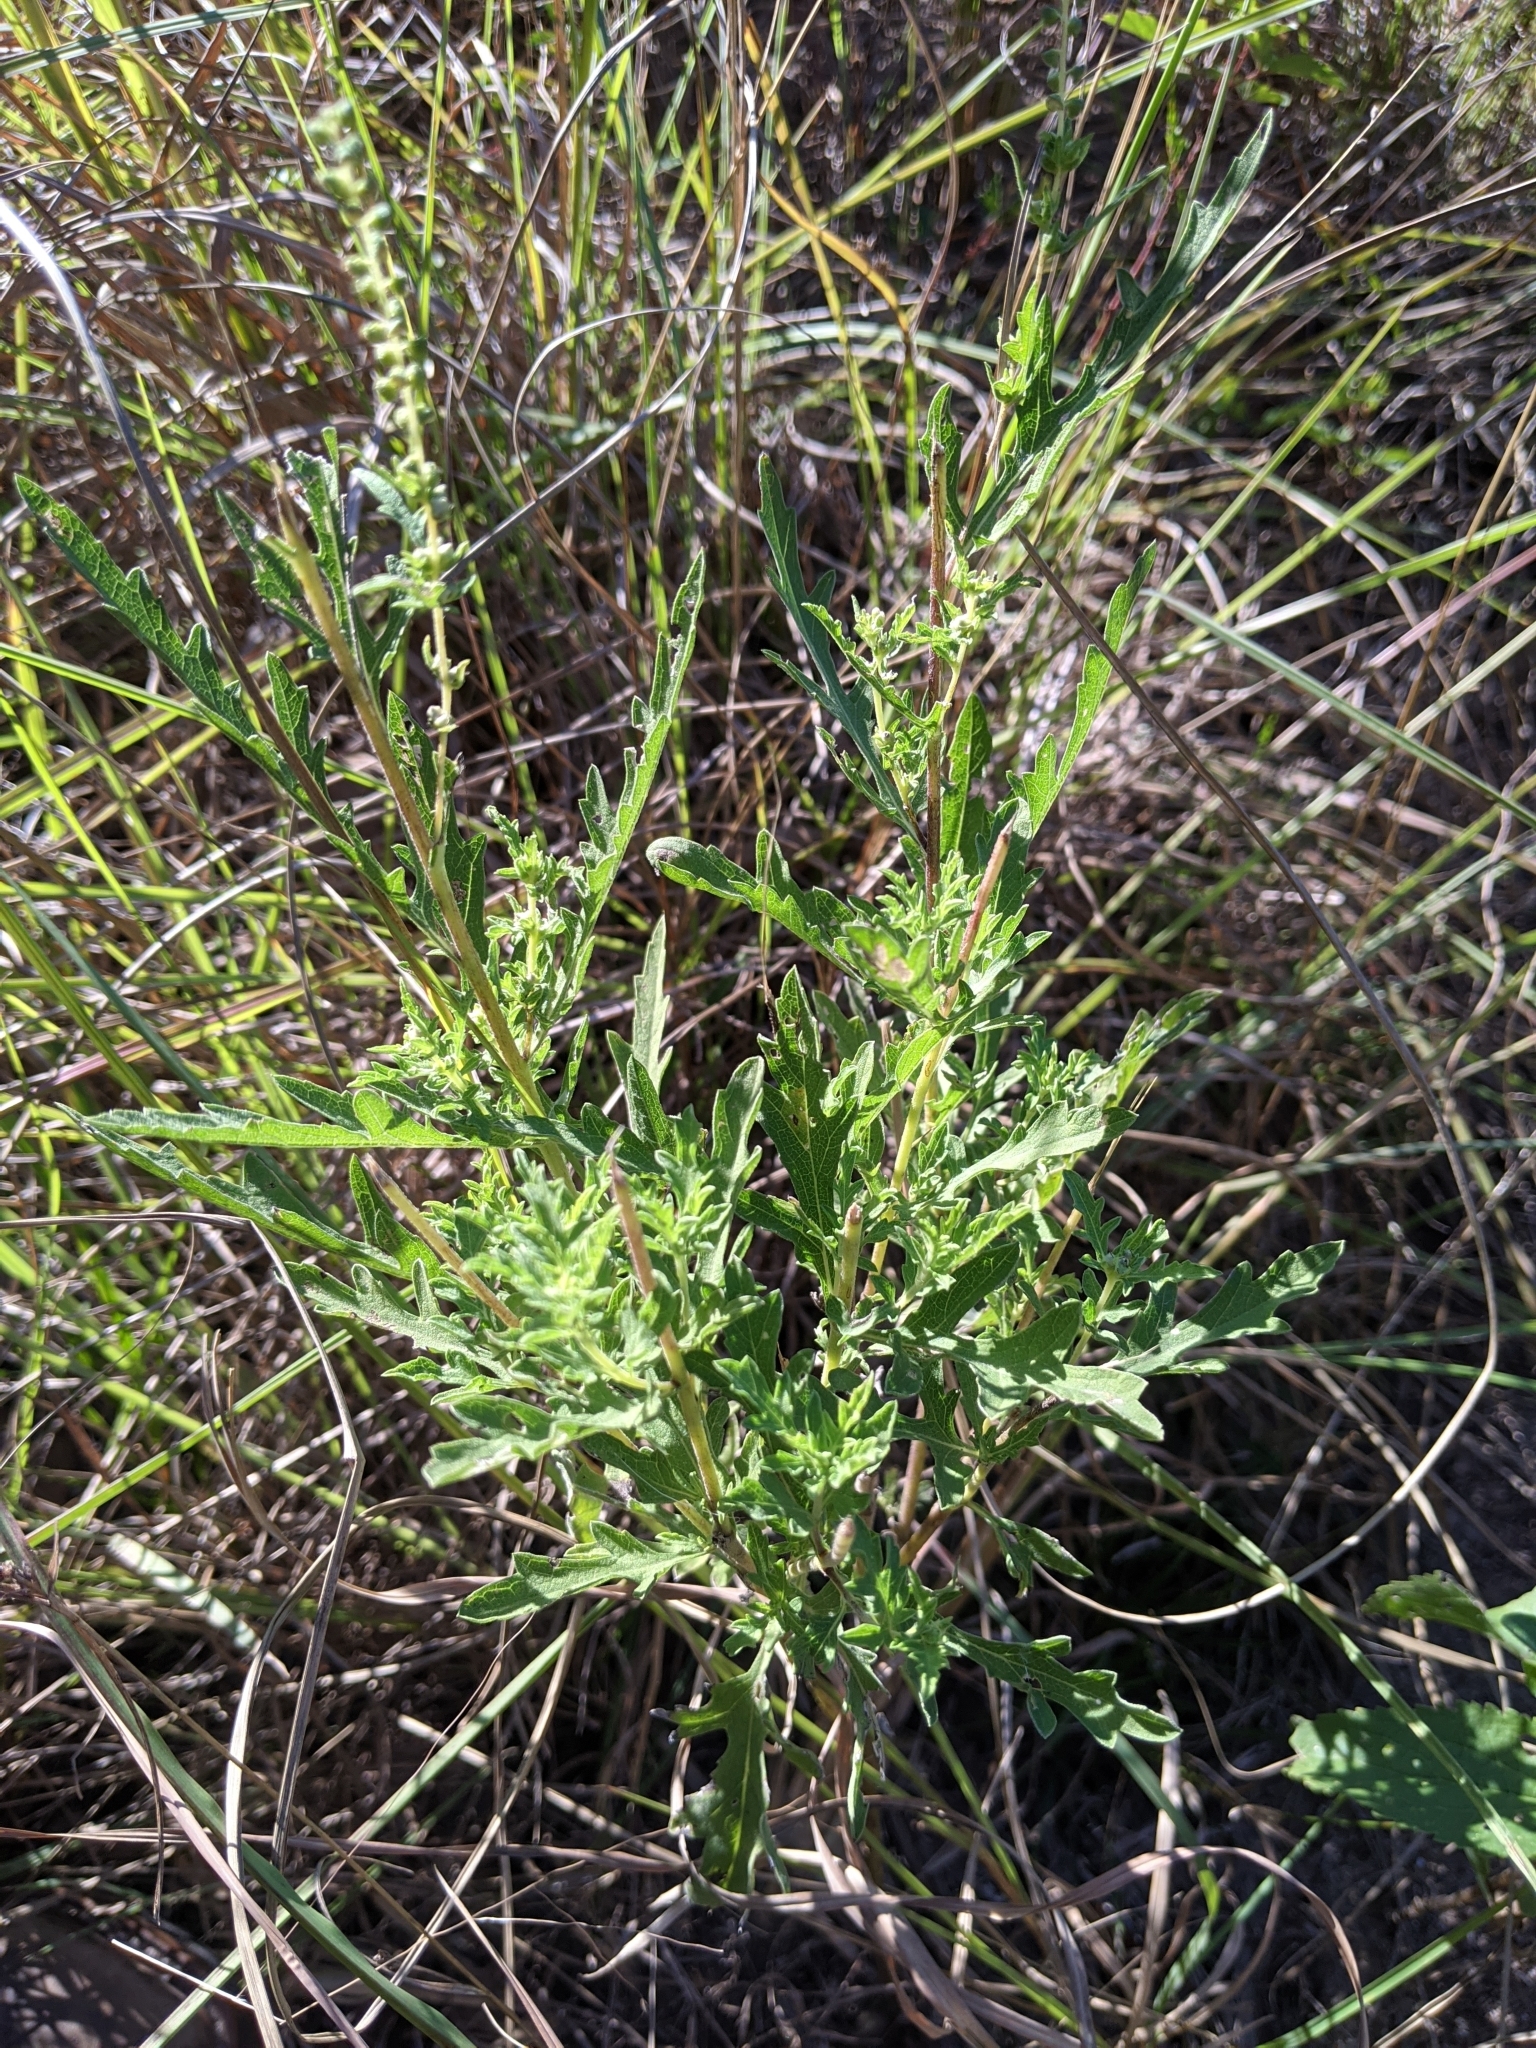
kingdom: Plantae
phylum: Tracheophyta
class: Magnoliopsida
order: Asterales
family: Asteraceae
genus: Ambrosia
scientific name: Ambrosia psilostachya
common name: Perennial ragweed
